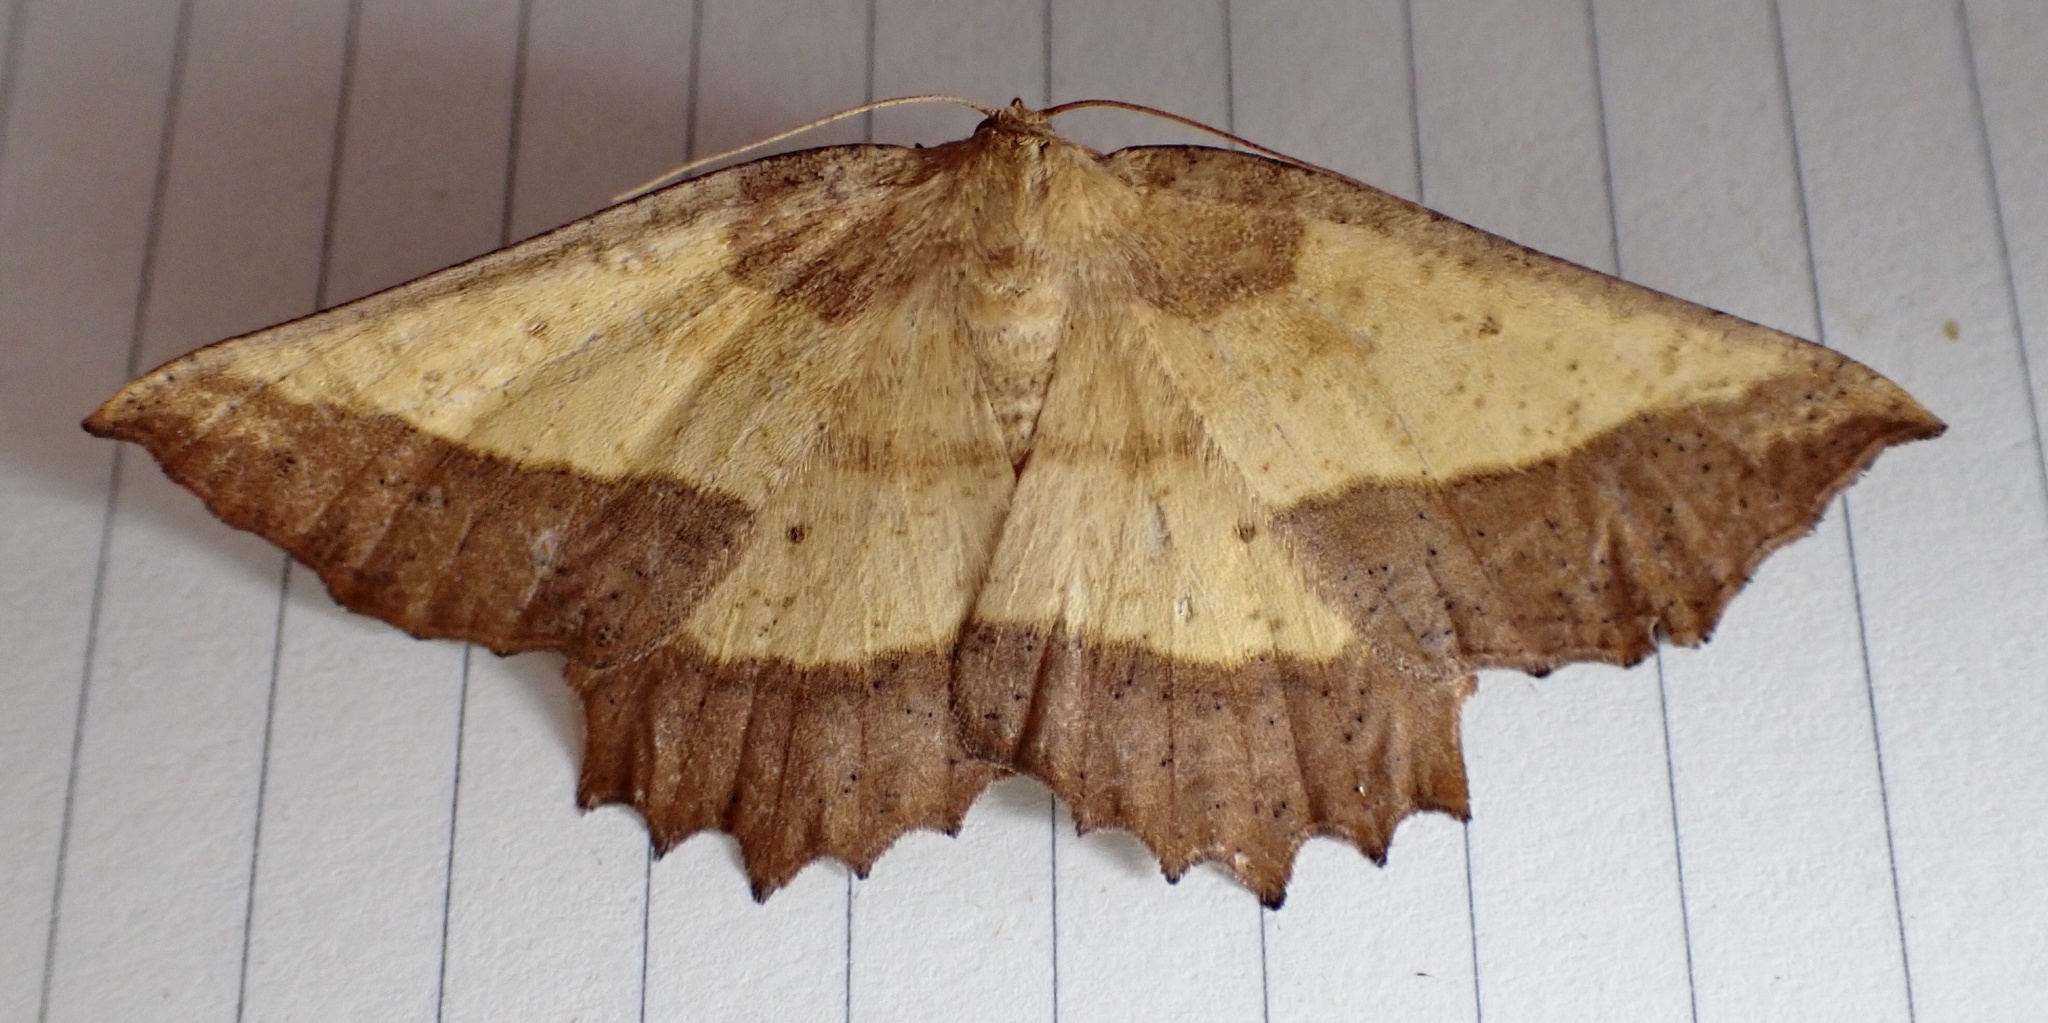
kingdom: Animalia
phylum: Arthropoda
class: Insecta
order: Lepidoptera
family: Geometridae
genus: Euchlaena
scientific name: Euchlaena serrata
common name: Saw wing
